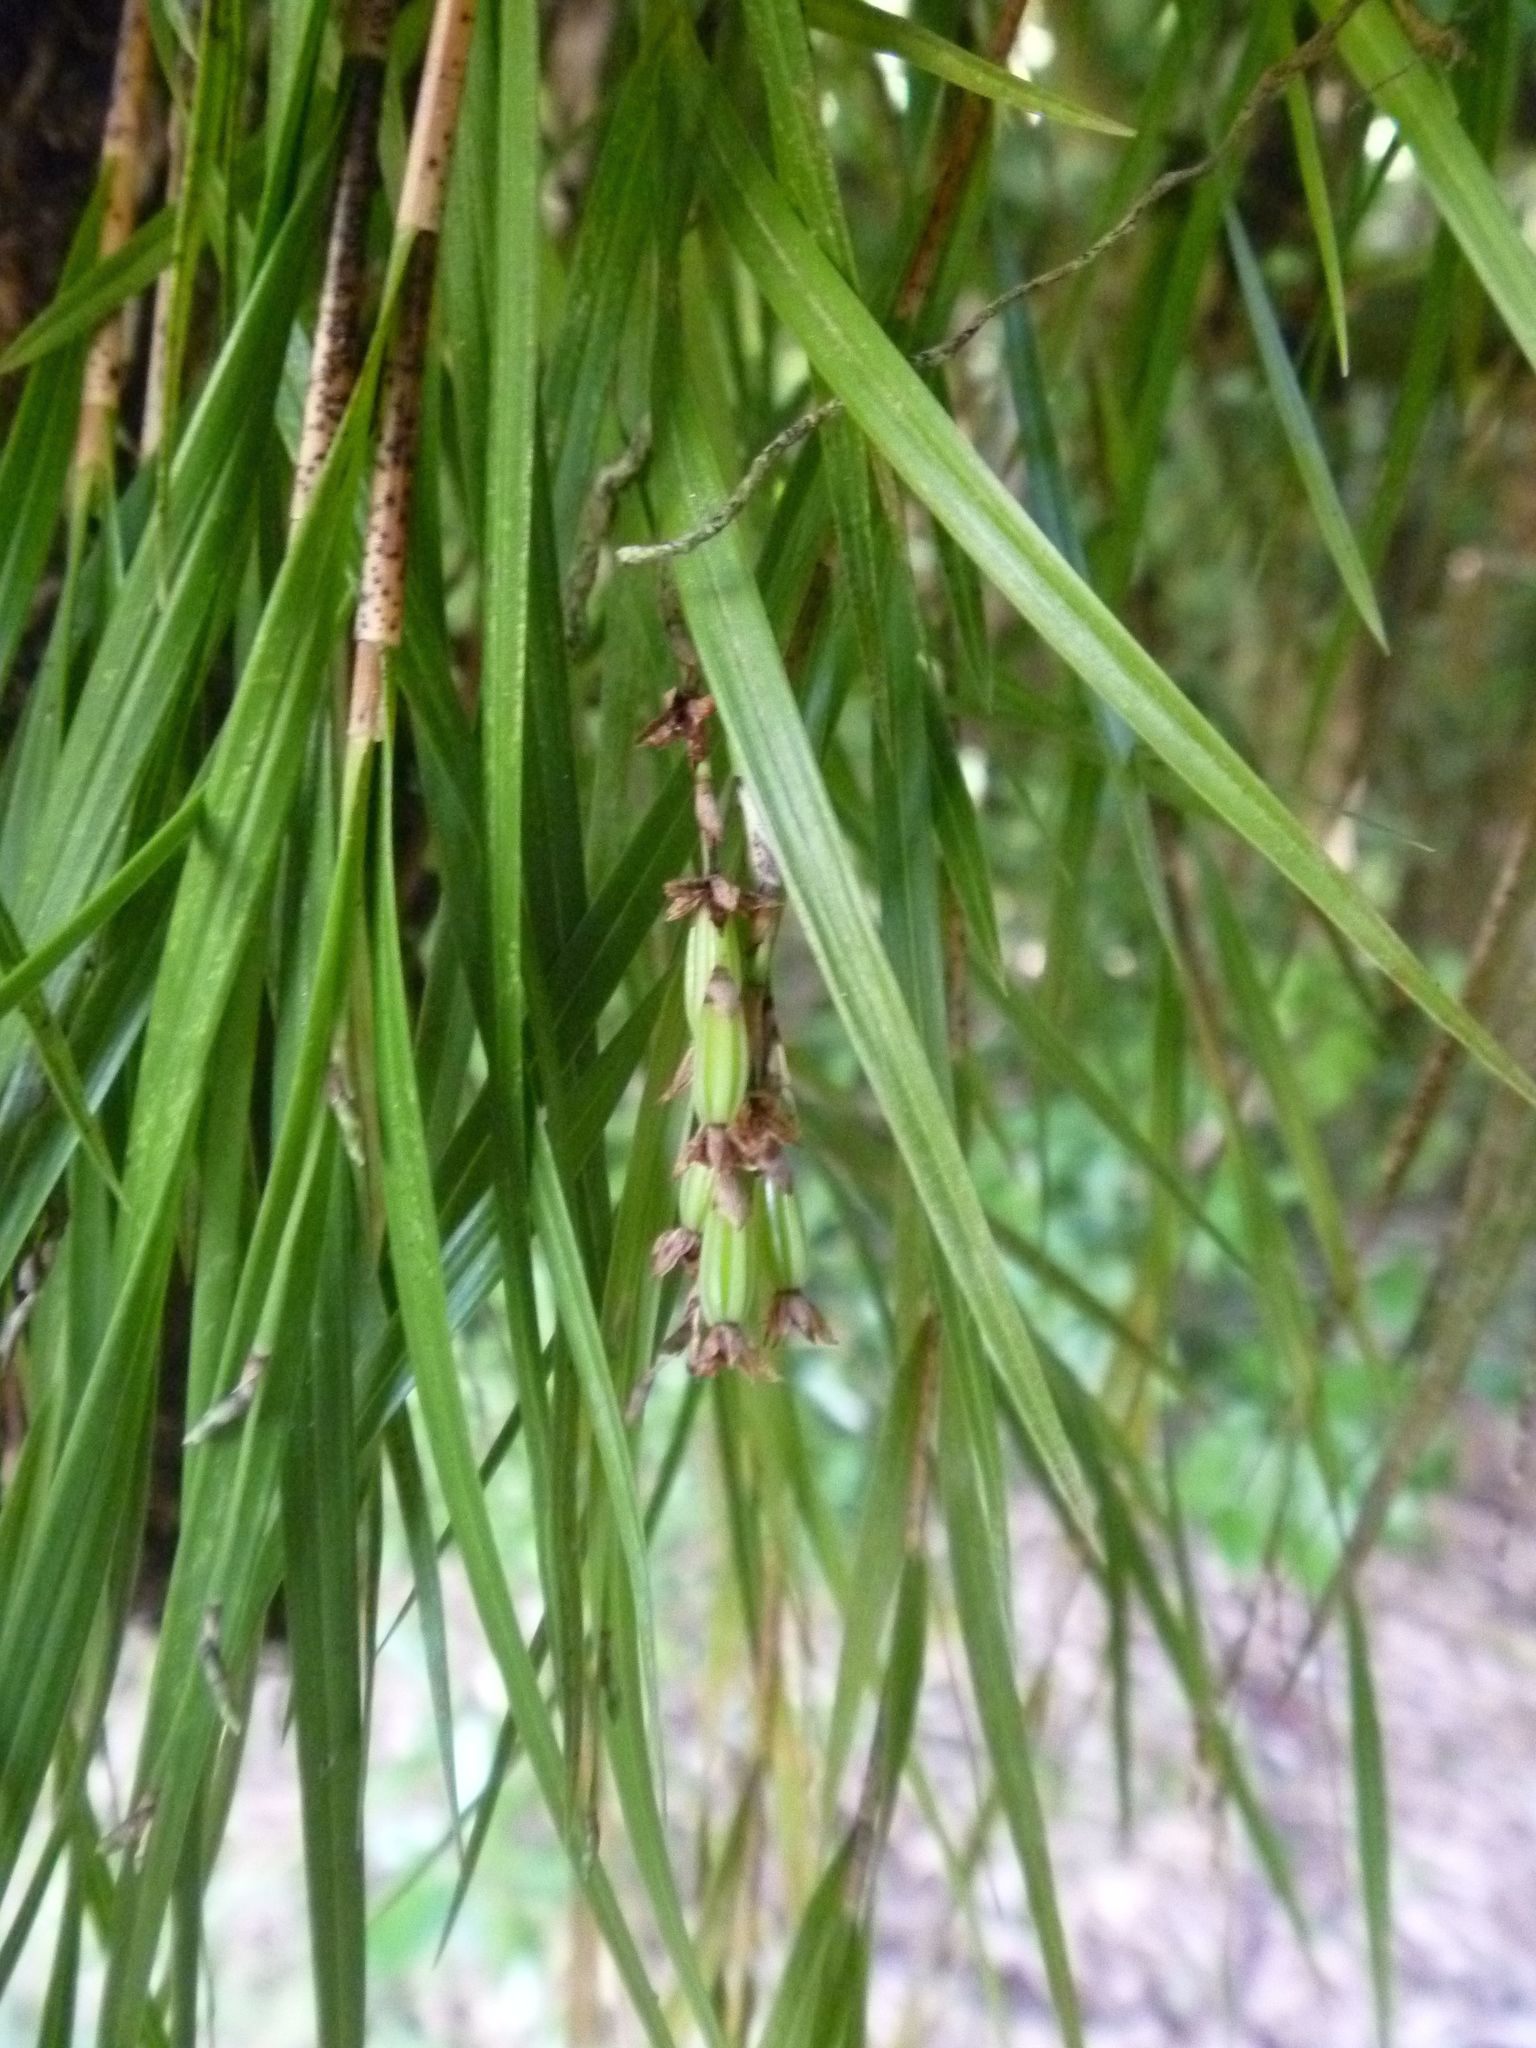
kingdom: Plantae
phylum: Tracheophyta
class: Liliopsida
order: Asparagales
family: Orchidaceae
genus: Earina
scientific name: Earina mucronata
